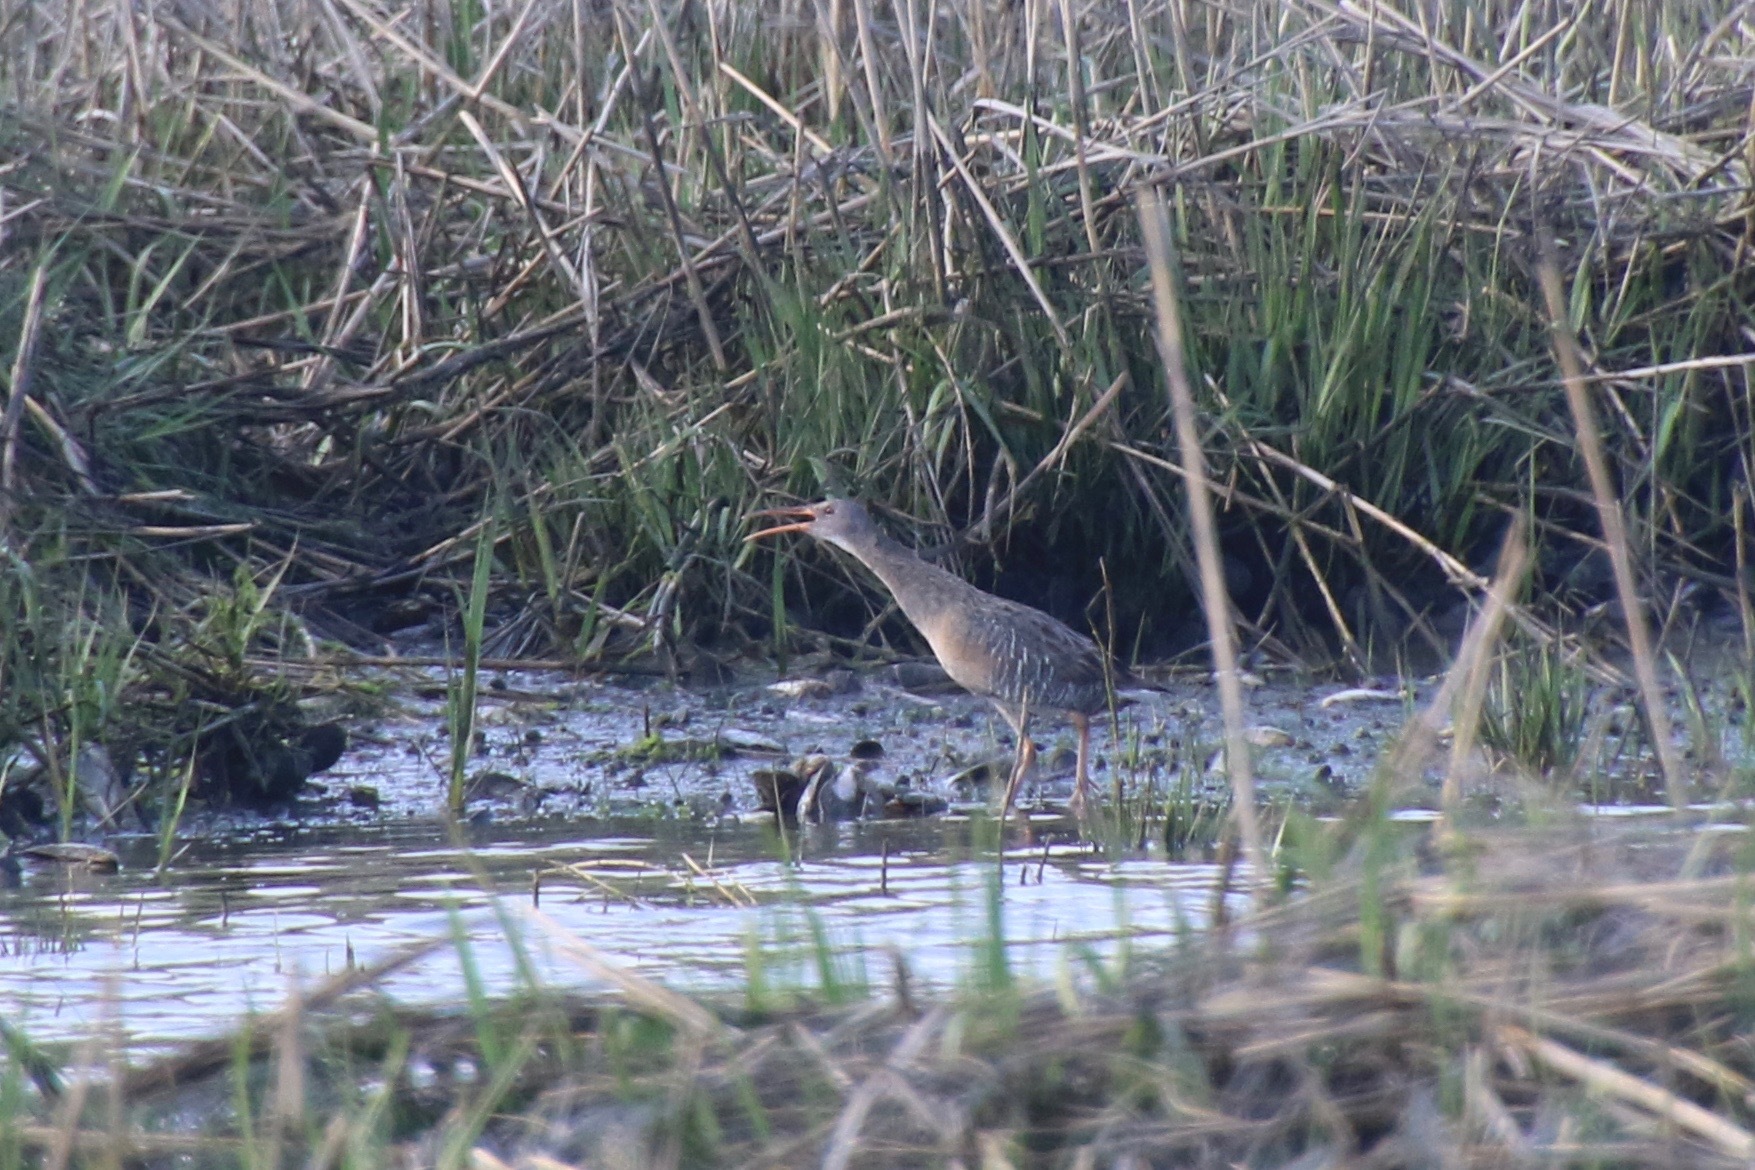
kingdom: Animalia
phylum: Chordata
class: Aves
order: Gruiformes
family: Rallidae
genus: Rallus
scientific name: Rallus crepitans
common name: Clapper rail
